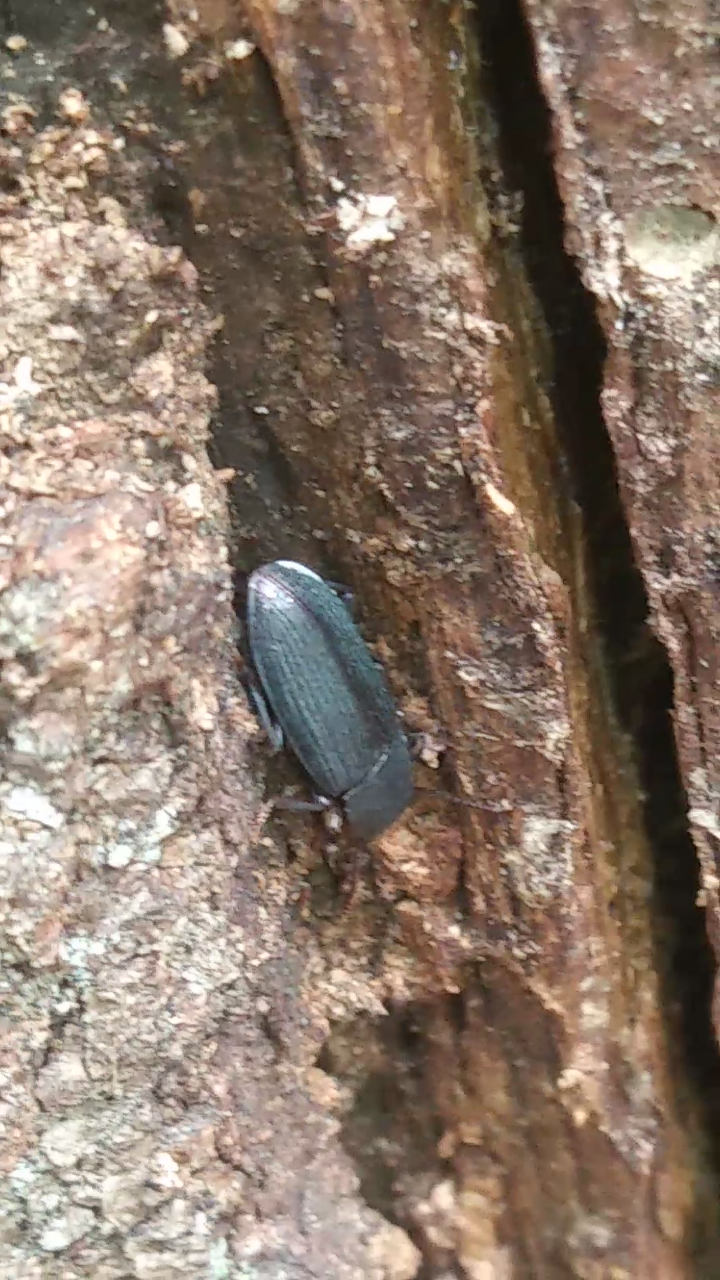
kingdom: Animalia
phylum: Arthropoda
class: Insecta
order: Coleoptera
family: Tenebrionidae
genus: Idiobates
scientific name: Idiobates castaneus
